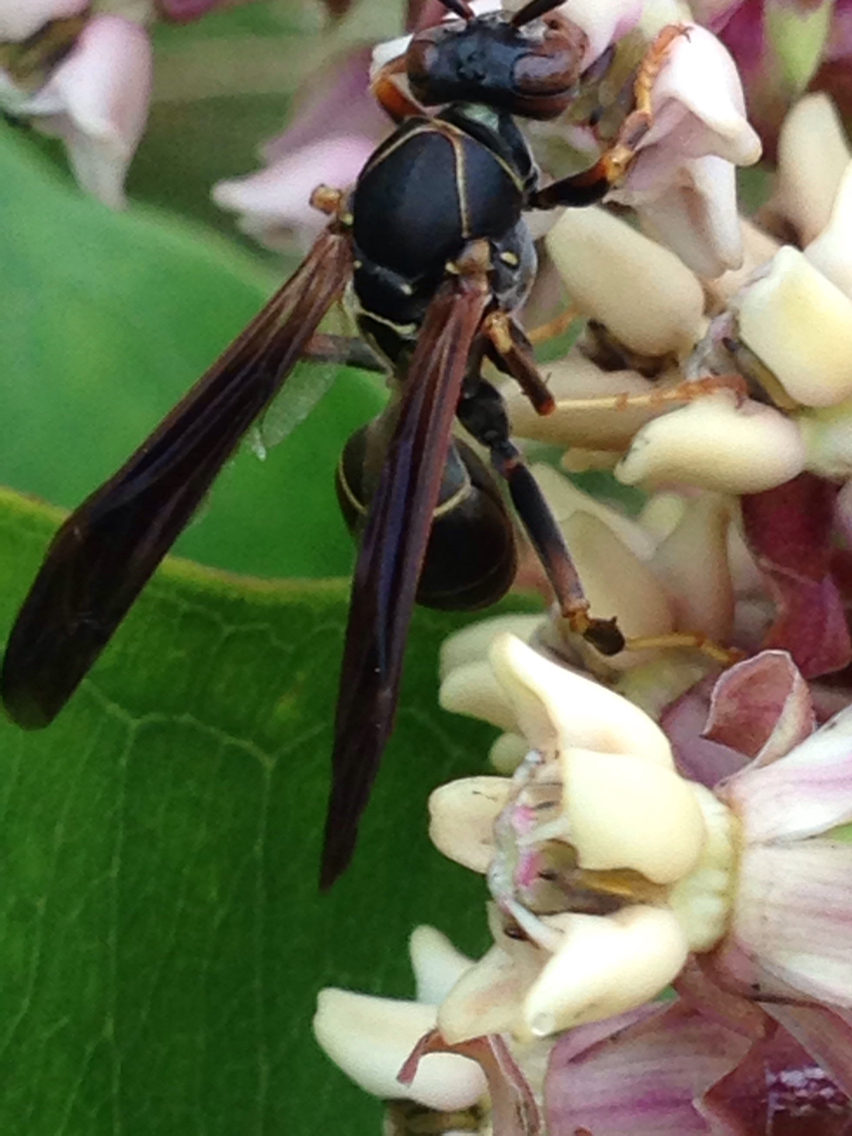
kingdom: Animalia
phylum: Arthropoda
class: Insecta
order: Hymenoptera
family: Eumenidae
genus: Polistes
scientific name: Polistes fuscatus
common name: Dark paper wasp
